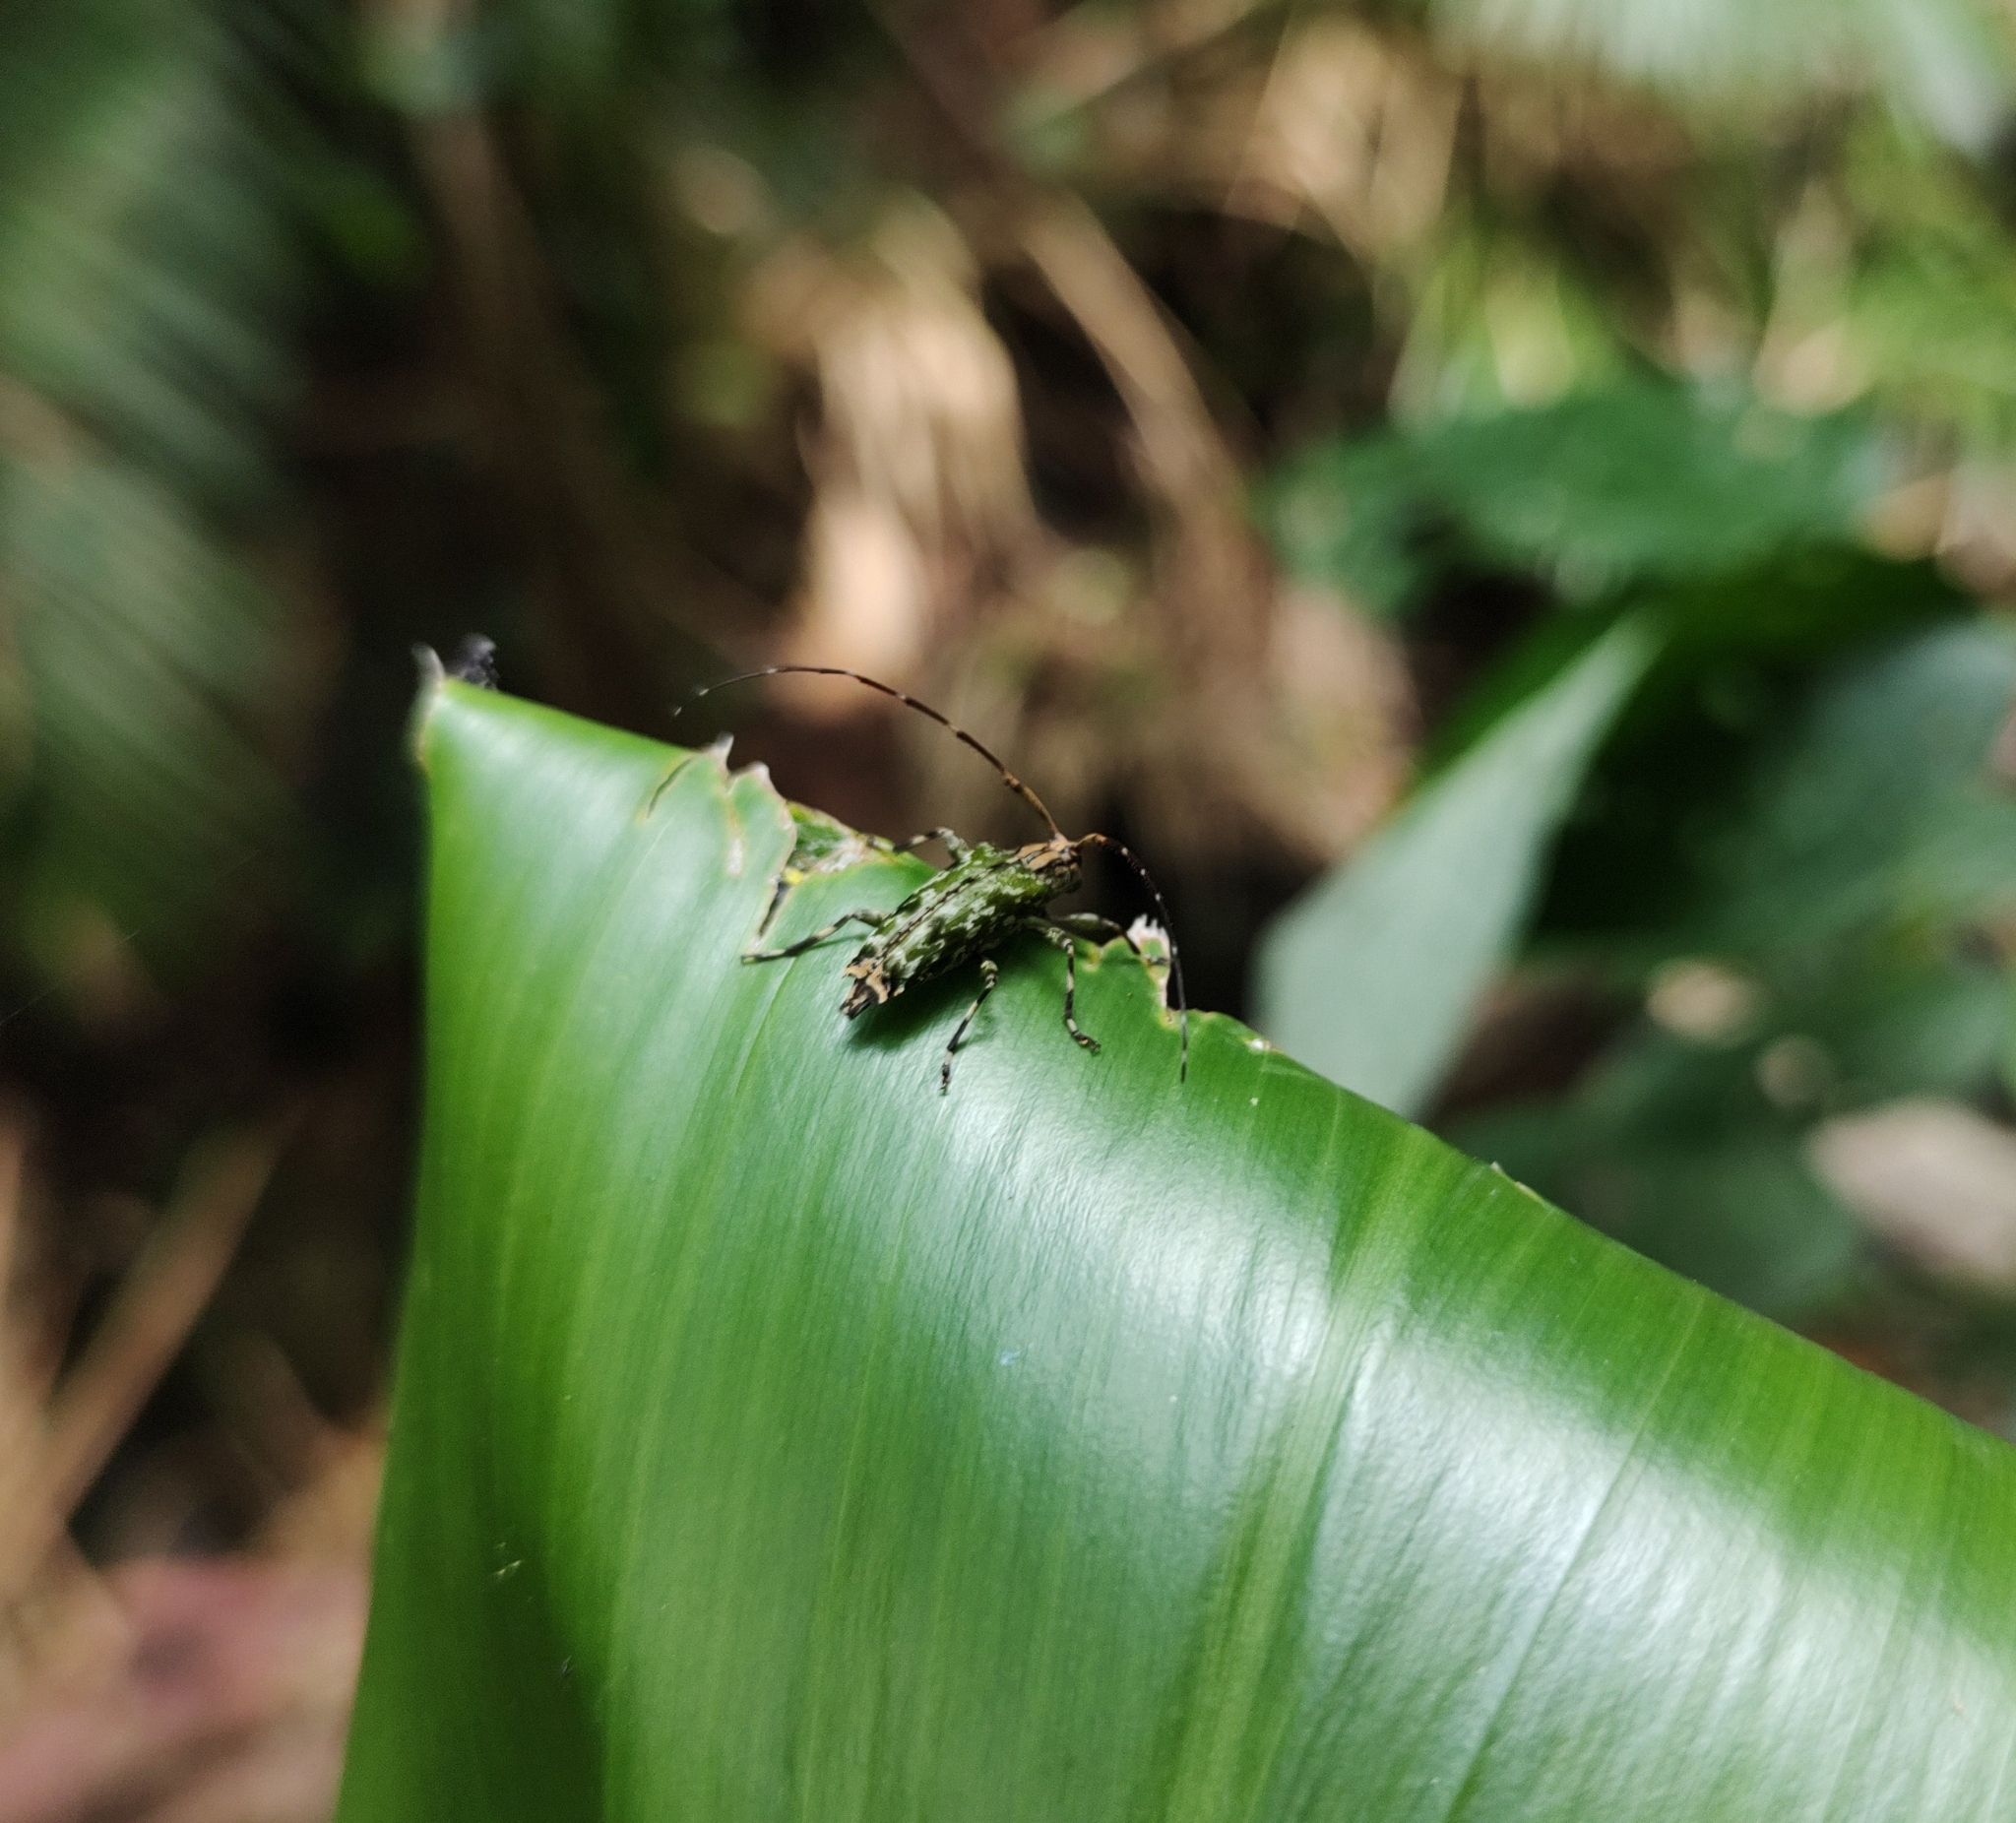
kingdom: Animalia
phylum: Arthropoda
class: Insecta
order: Coleoptera
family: Cerambycidae
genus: Colobothea
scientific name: Colobothea musiva
